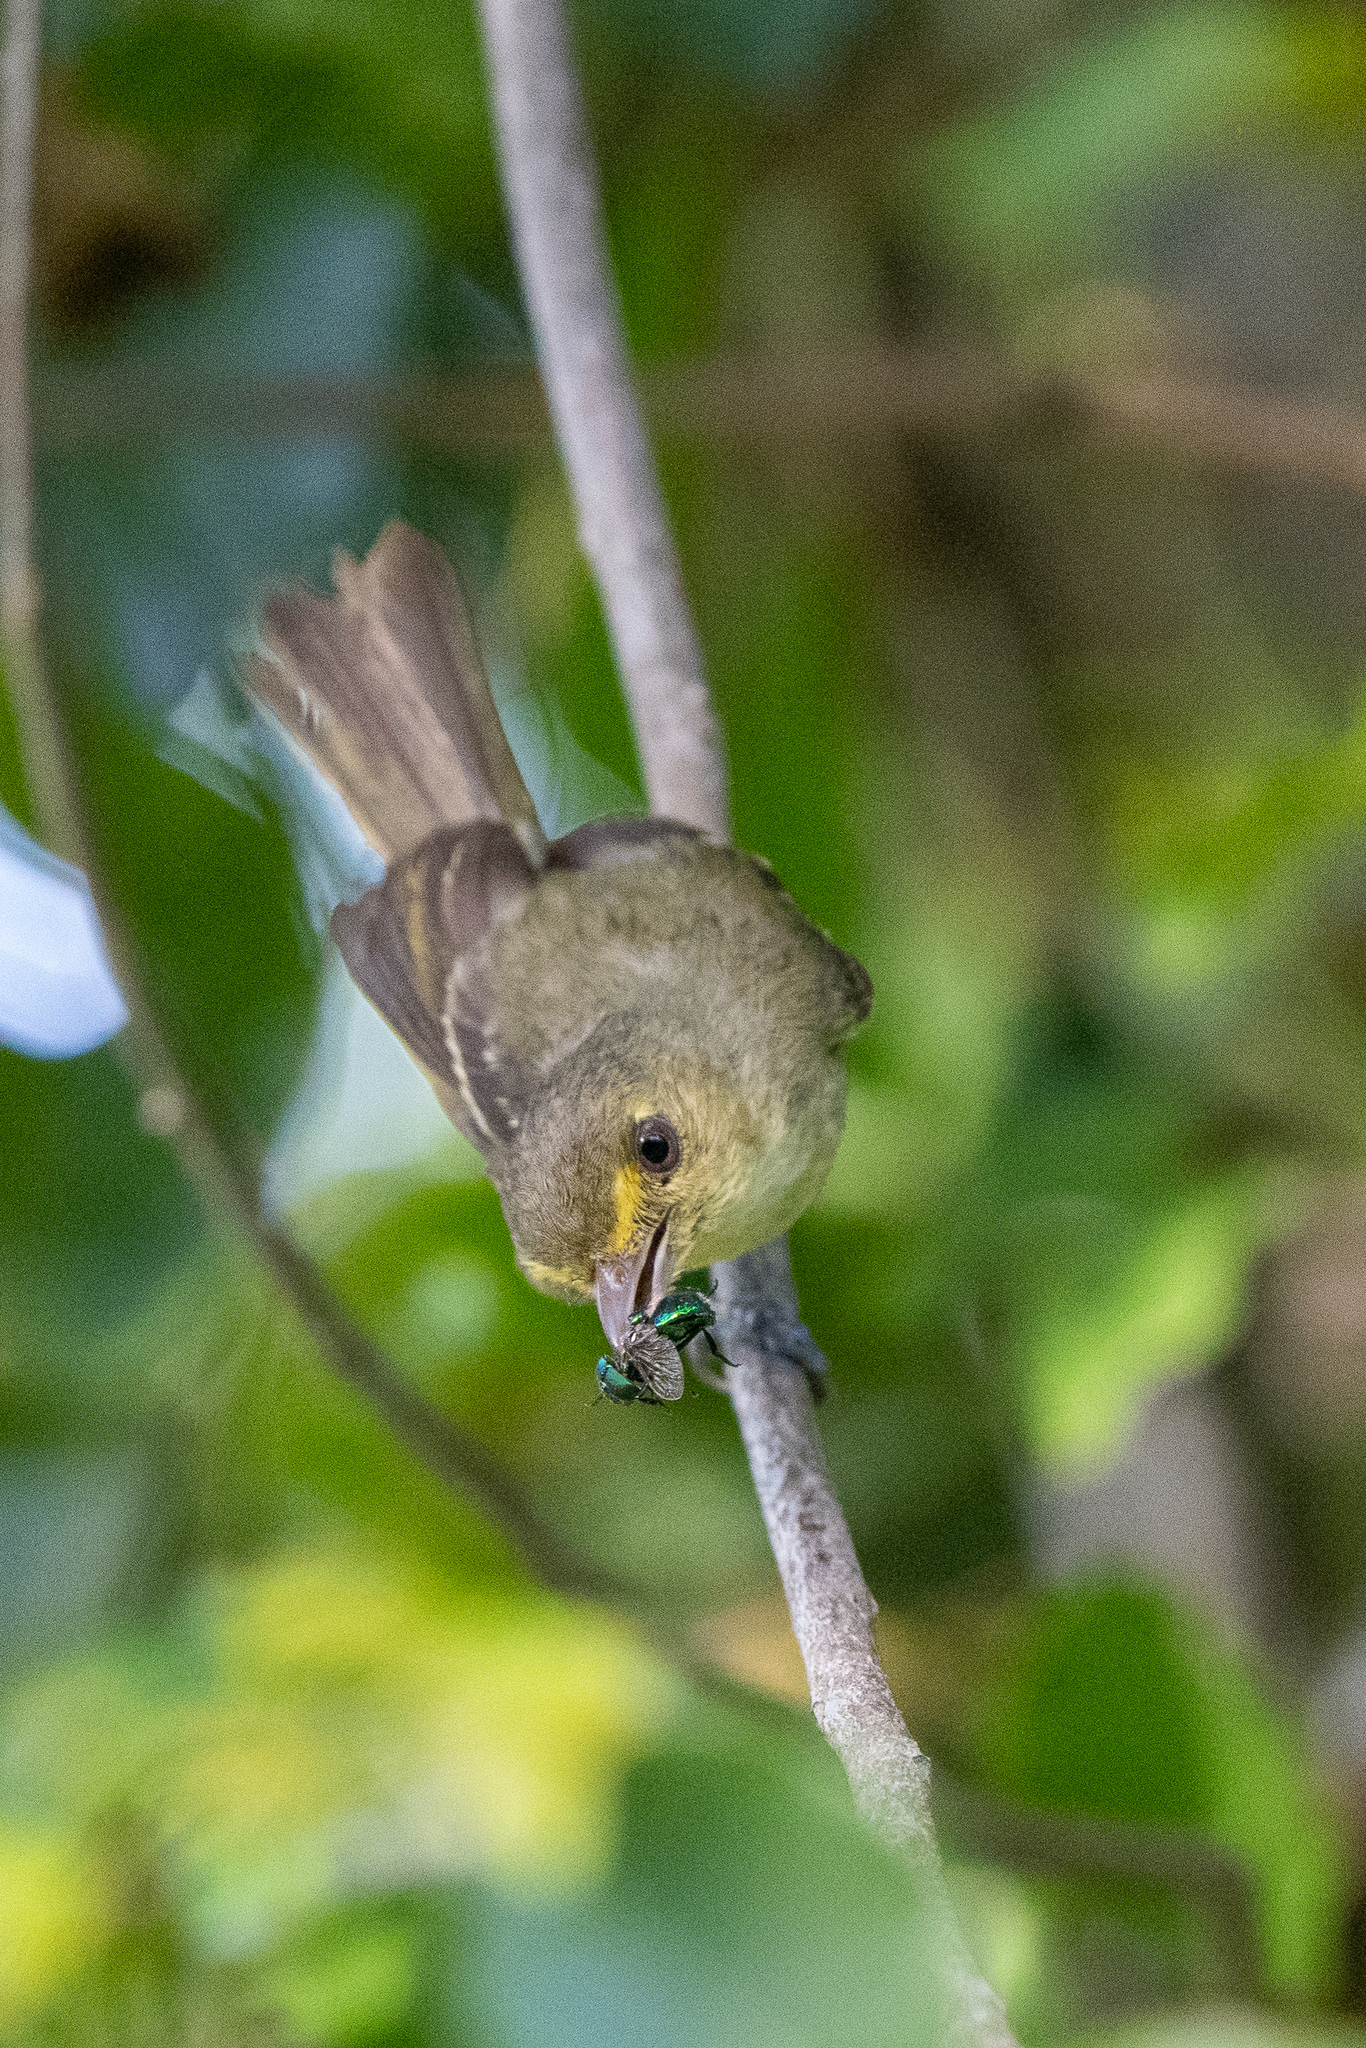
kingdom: Animalia
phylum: Chordata
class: Aves
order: Passeriformes
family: Vireonidae
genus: Vireo
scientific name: Vireo pallens
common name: Mangrove vireo
